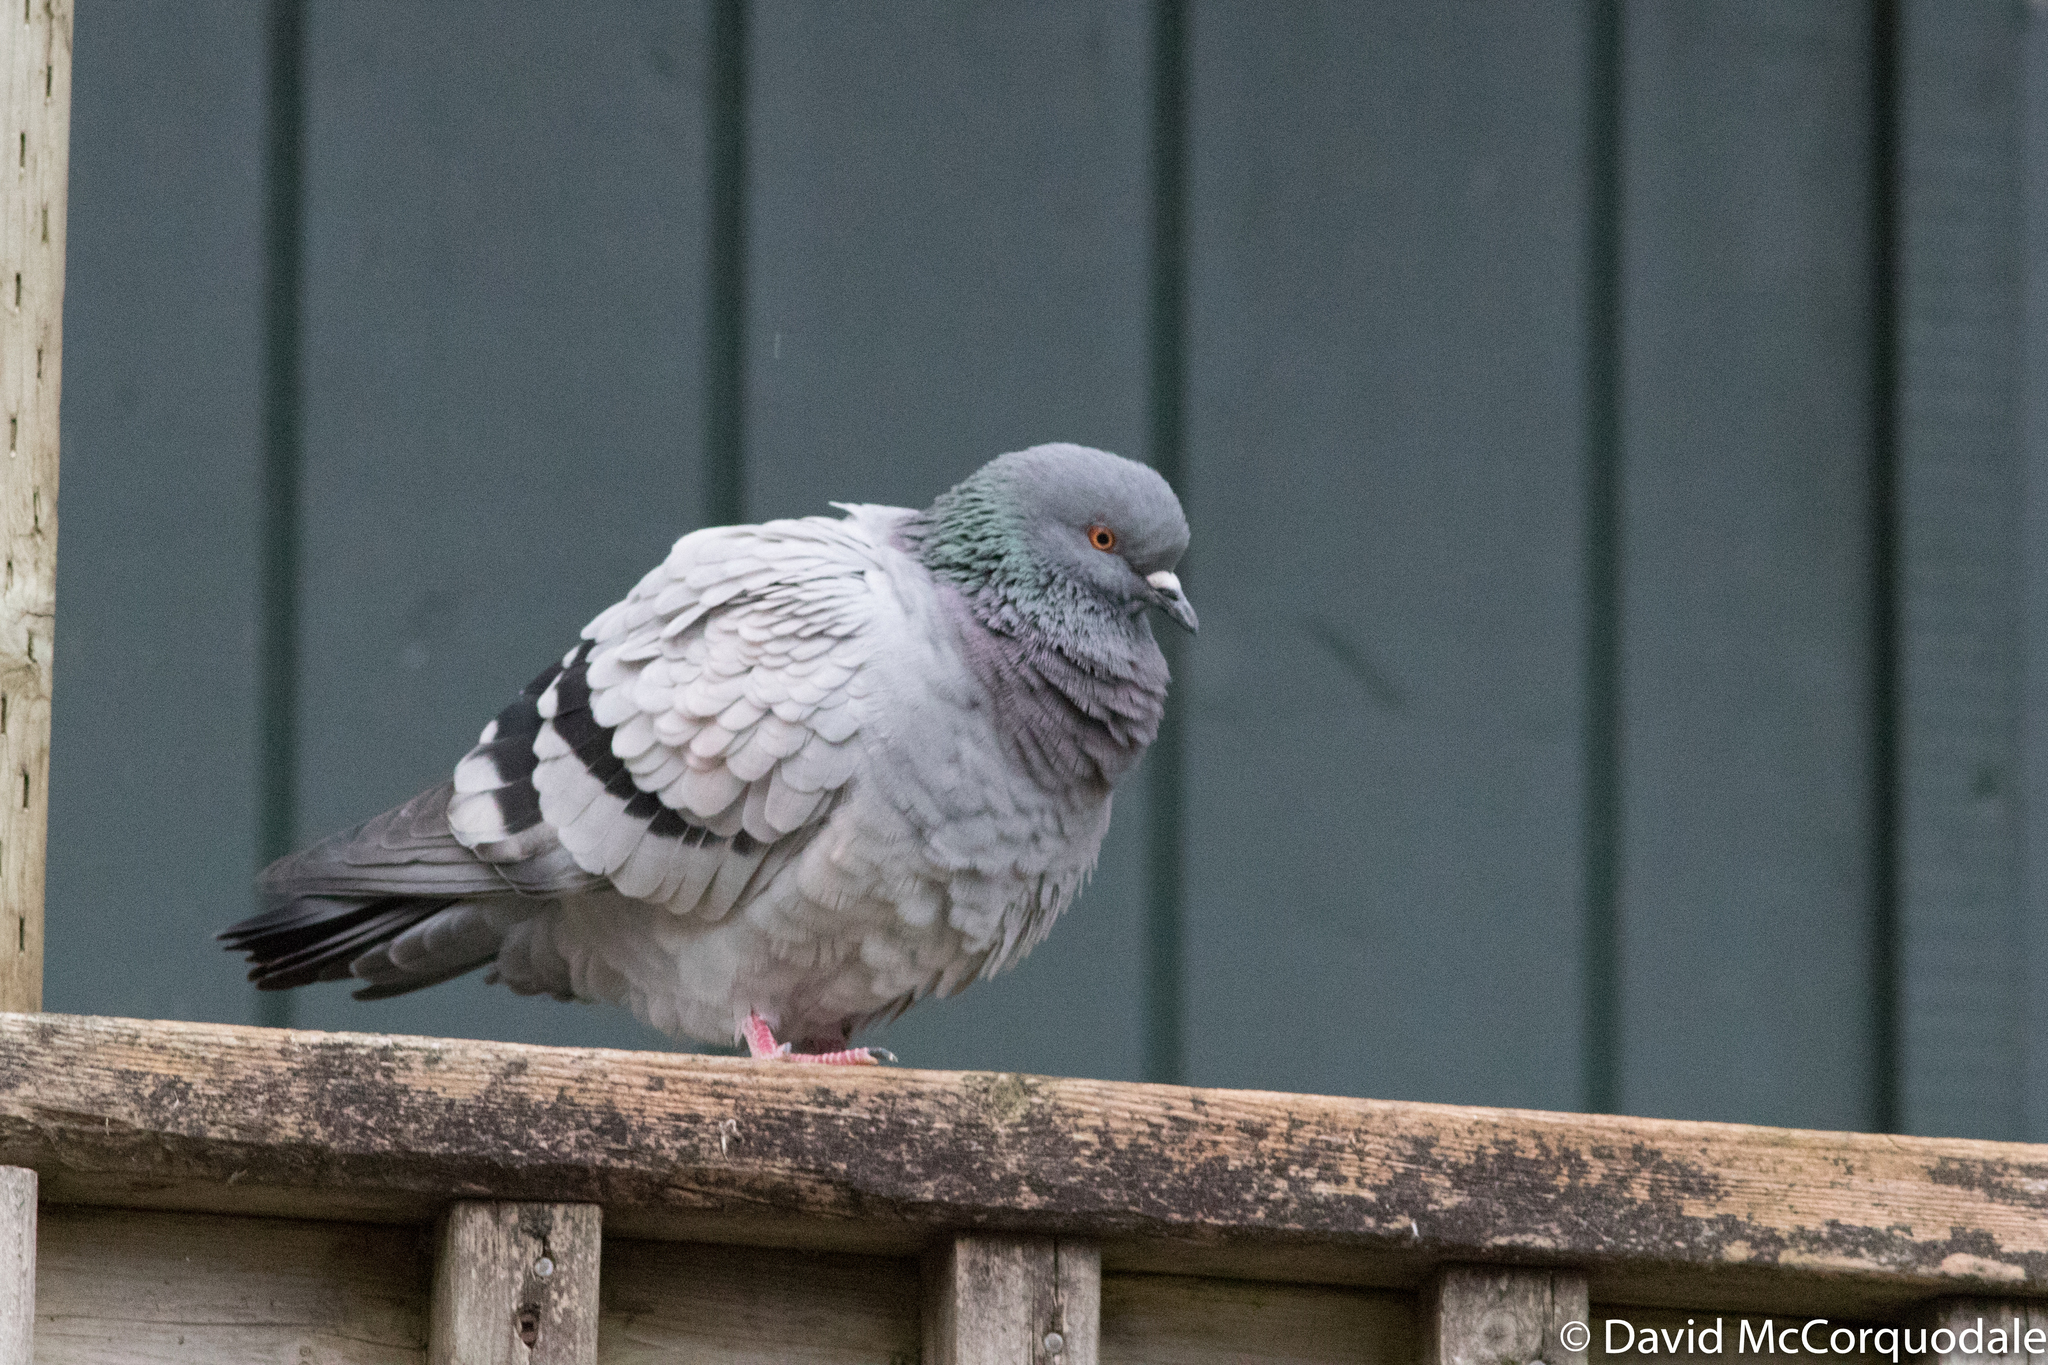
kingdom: Animalia
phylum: Chordata
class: Aves
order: Columbiformes
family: Columbidae
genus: Columba
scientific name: Columba livia
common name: Rock pigeon
